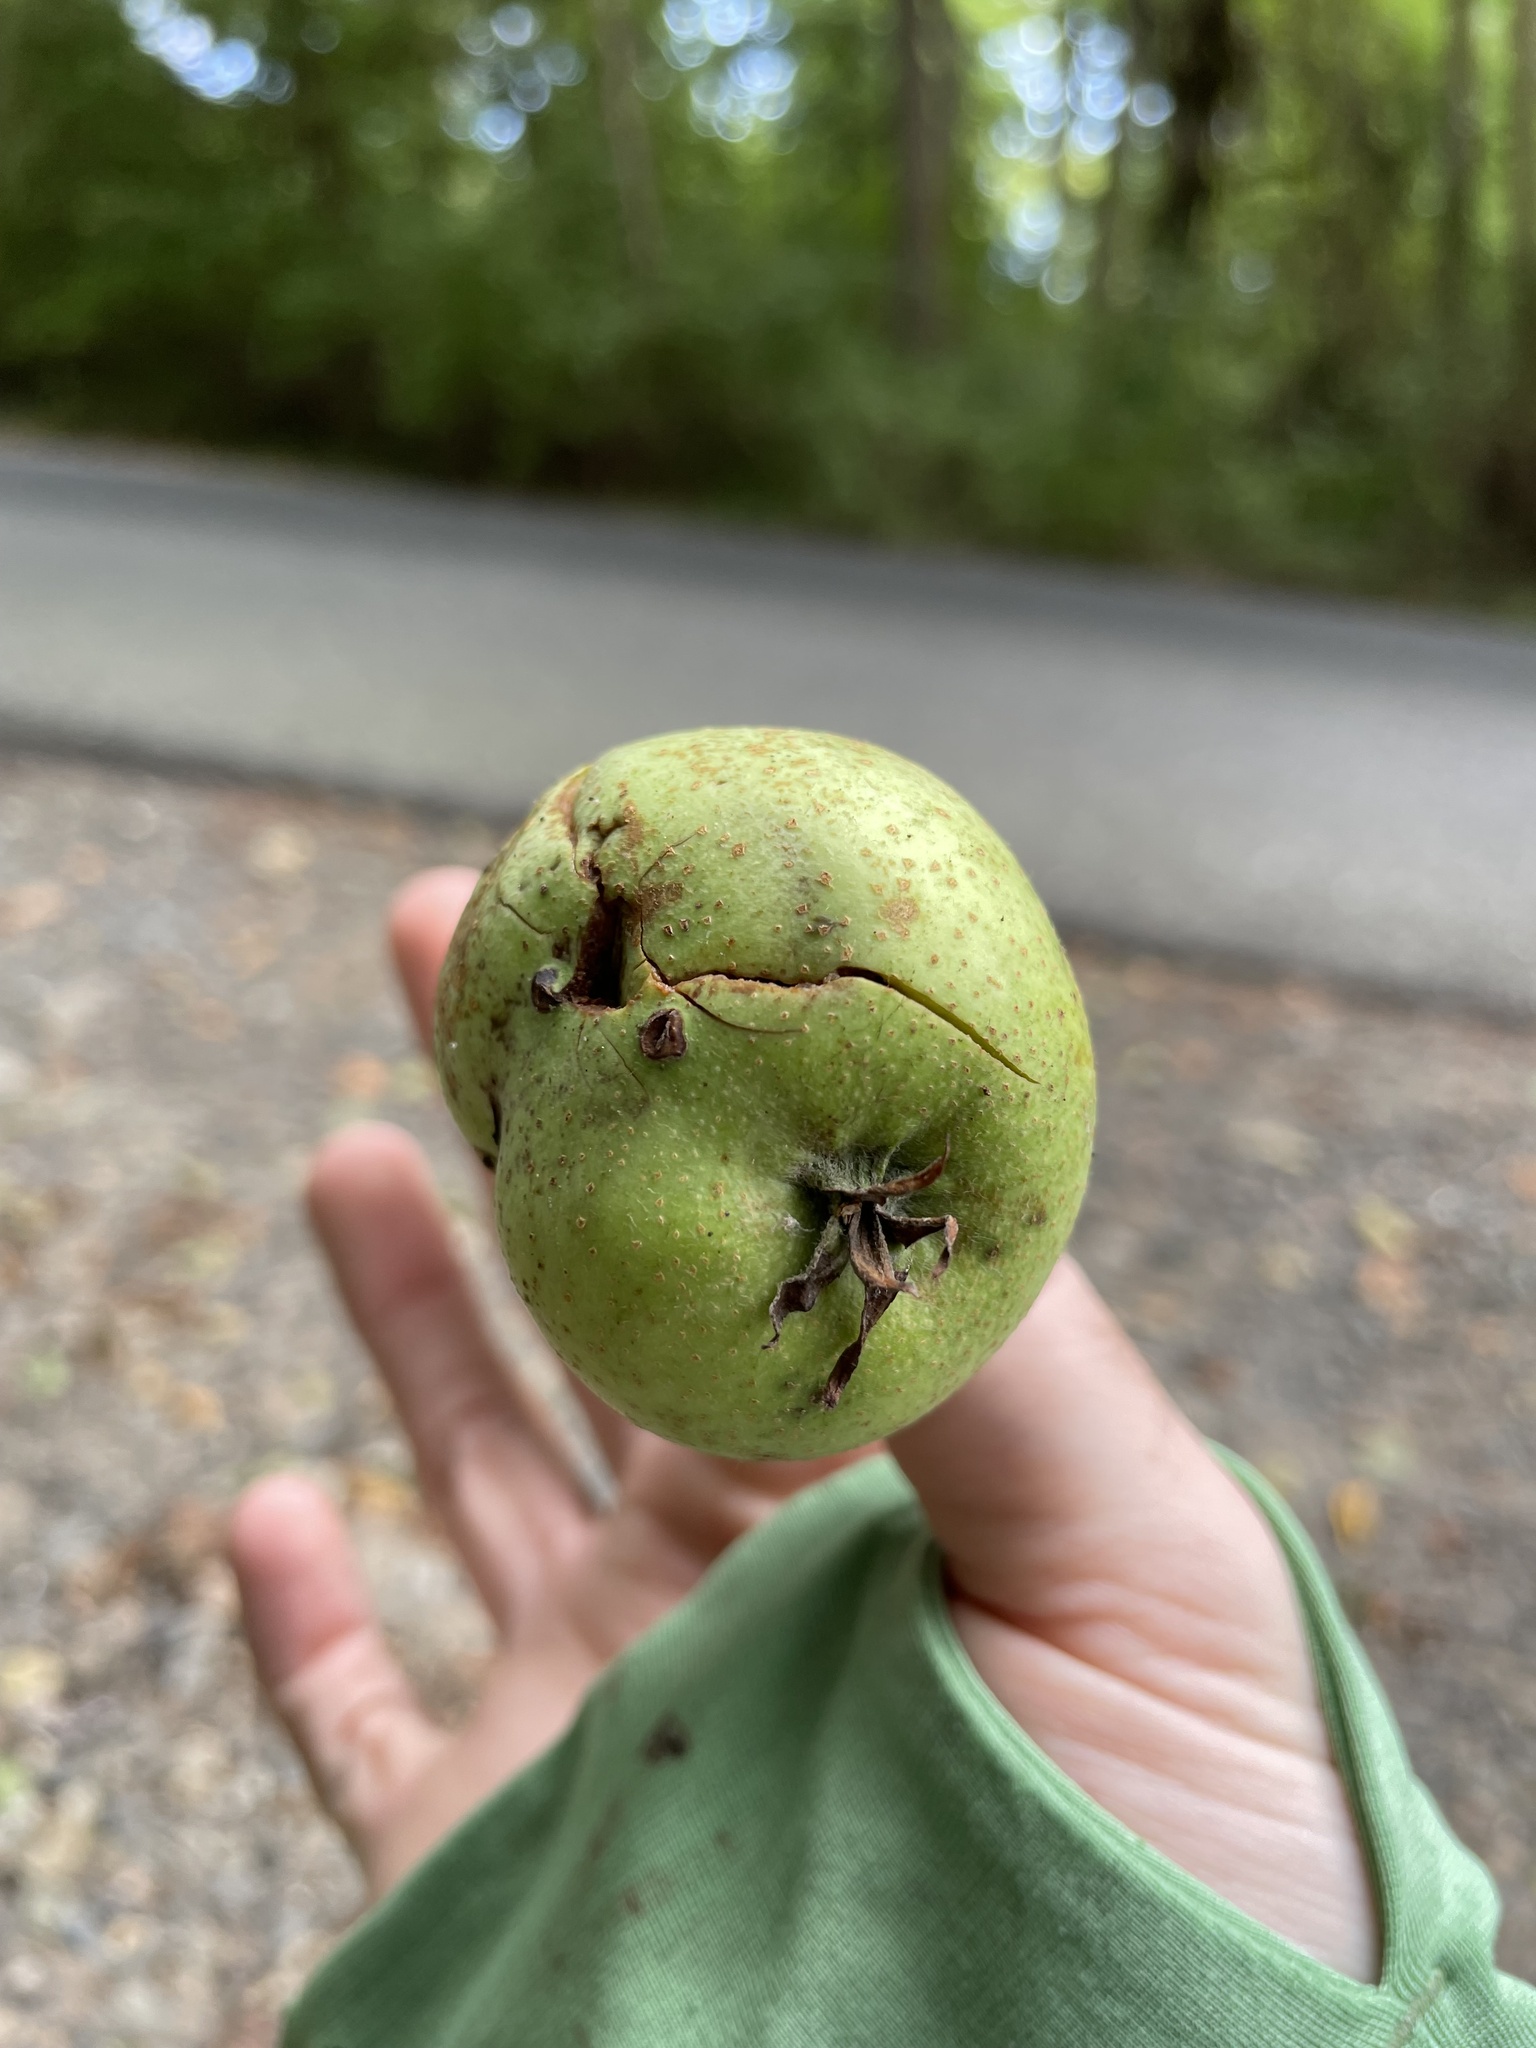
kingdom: Plantae
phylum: Tracheophyta
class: Magnoliopsida
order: Rosales
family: Rosaceae
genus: Malus
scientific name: Malus domestica
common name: Apple
